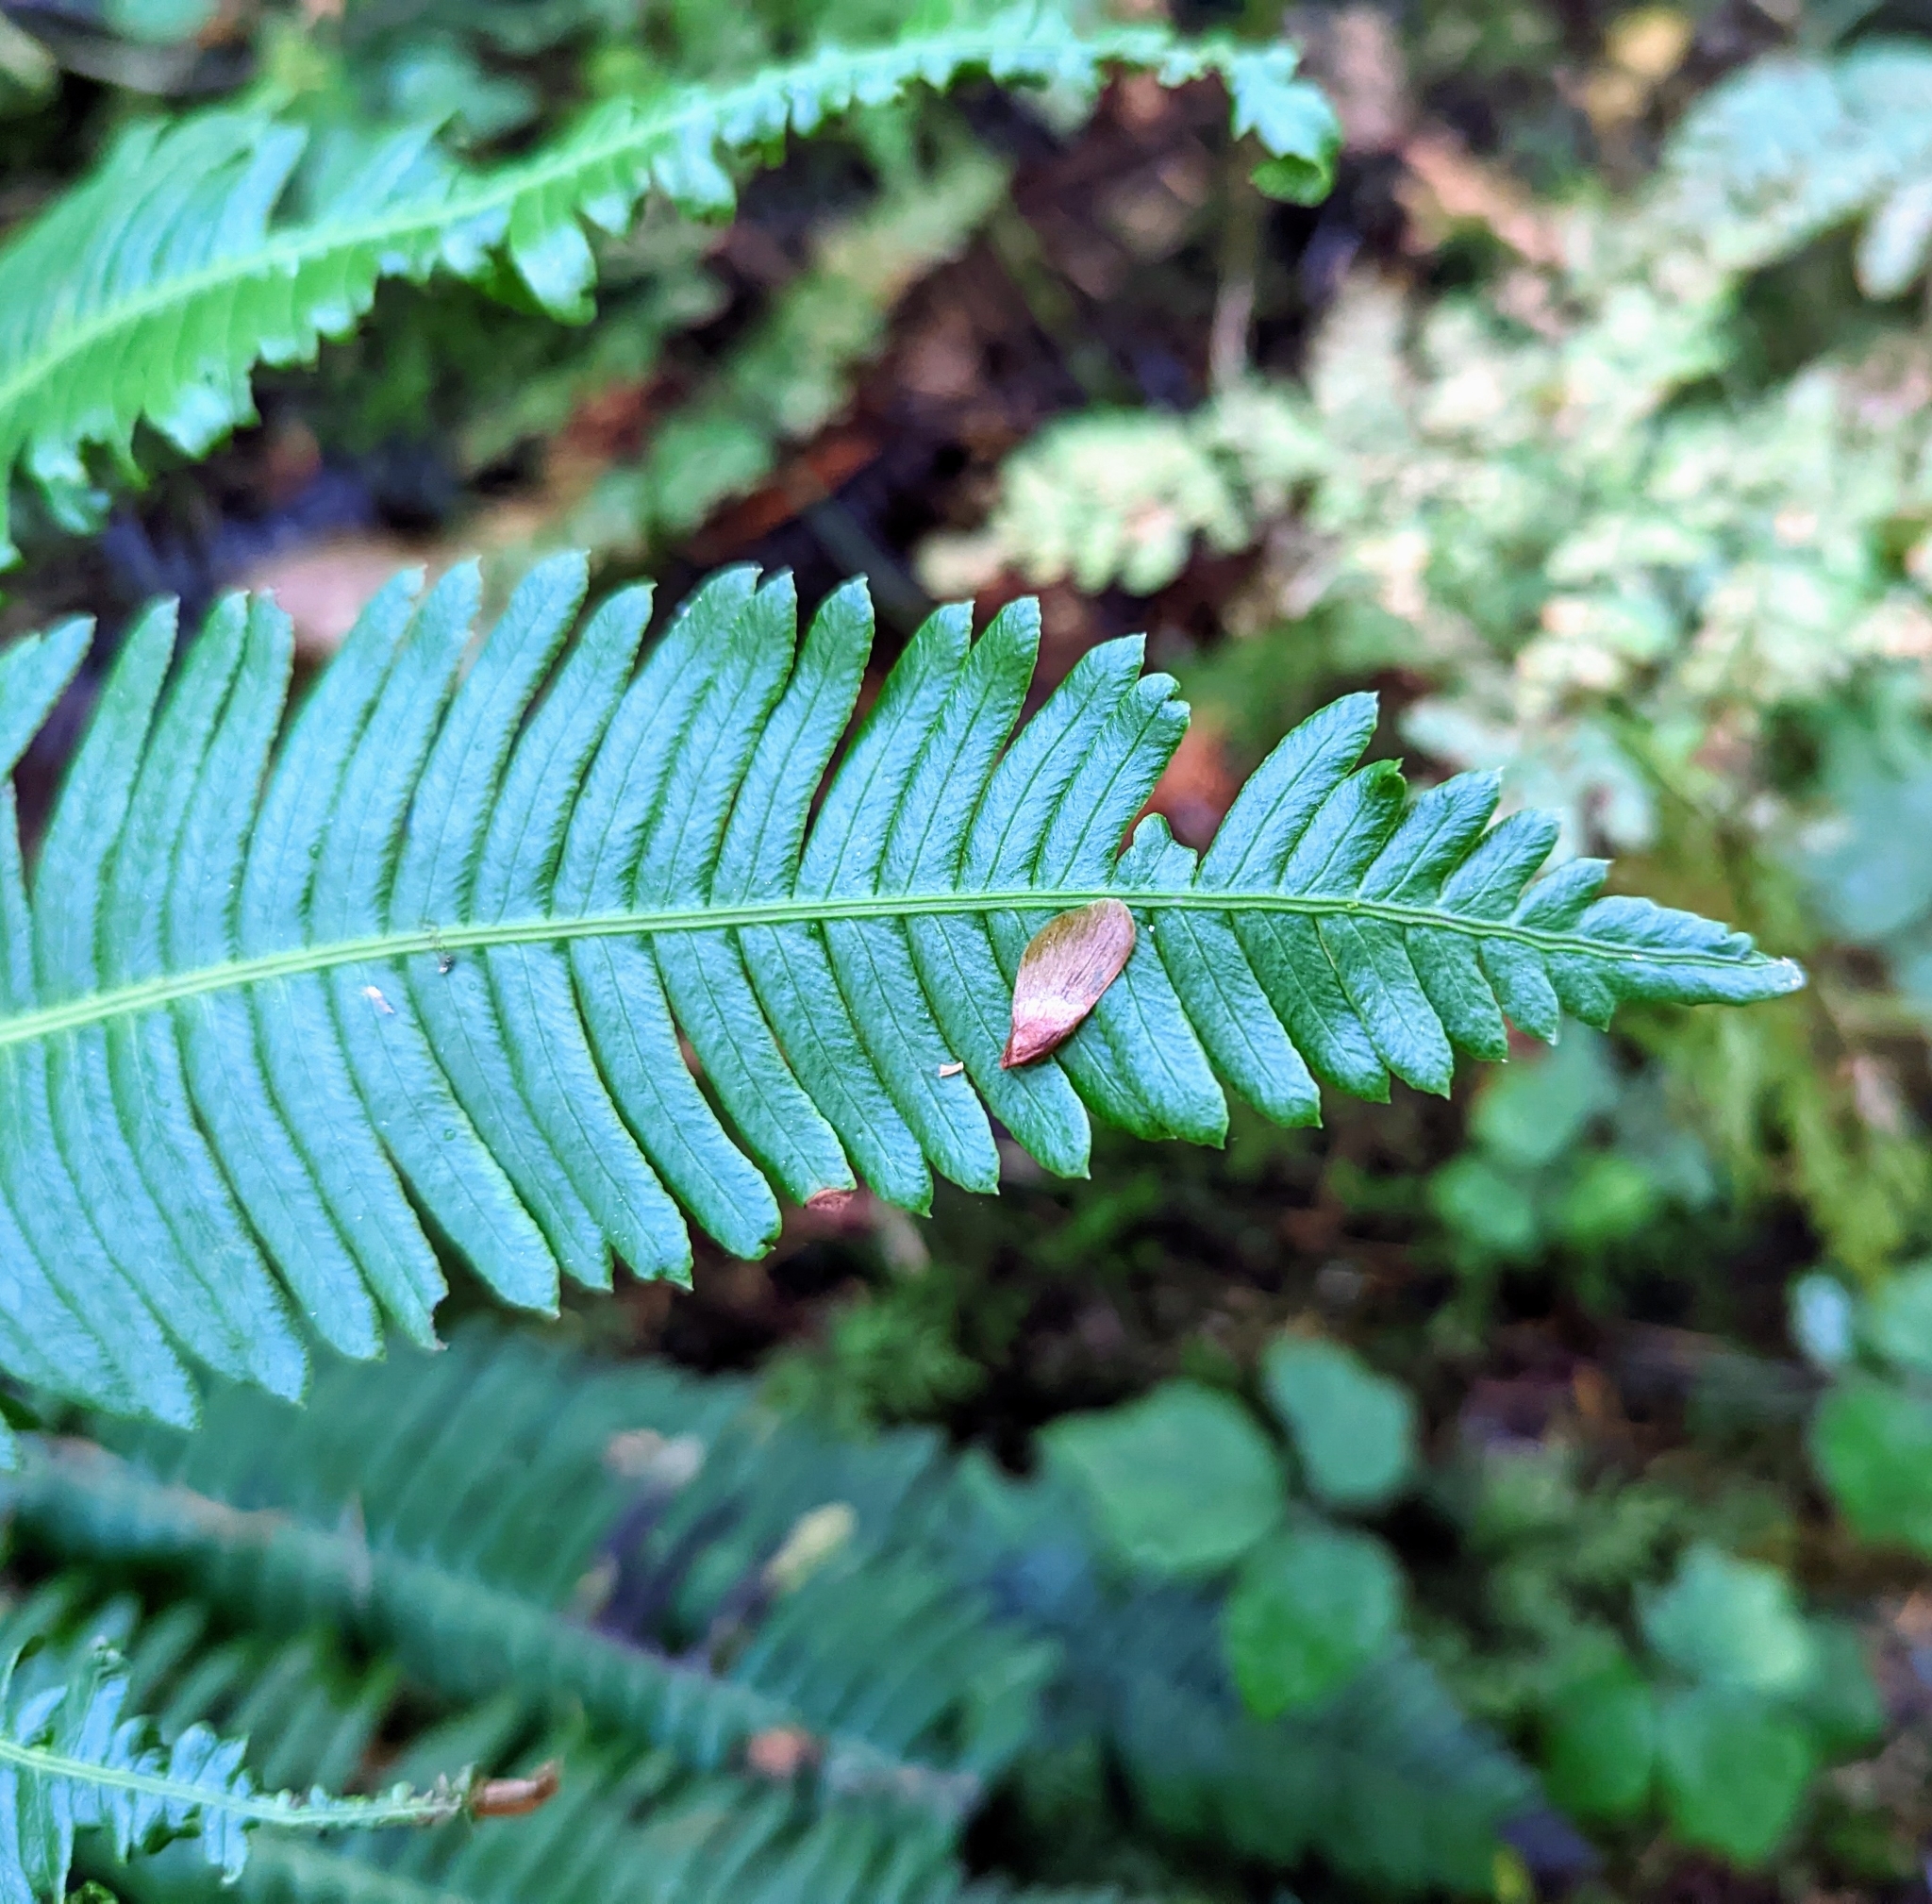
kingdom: Plantae
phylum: Tracheophyta
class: Polypodiopsida
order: Polypodiales
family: Blechnaceae
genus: Struthiopteris
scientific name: Struthiopteris spicant
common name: Deer fern
